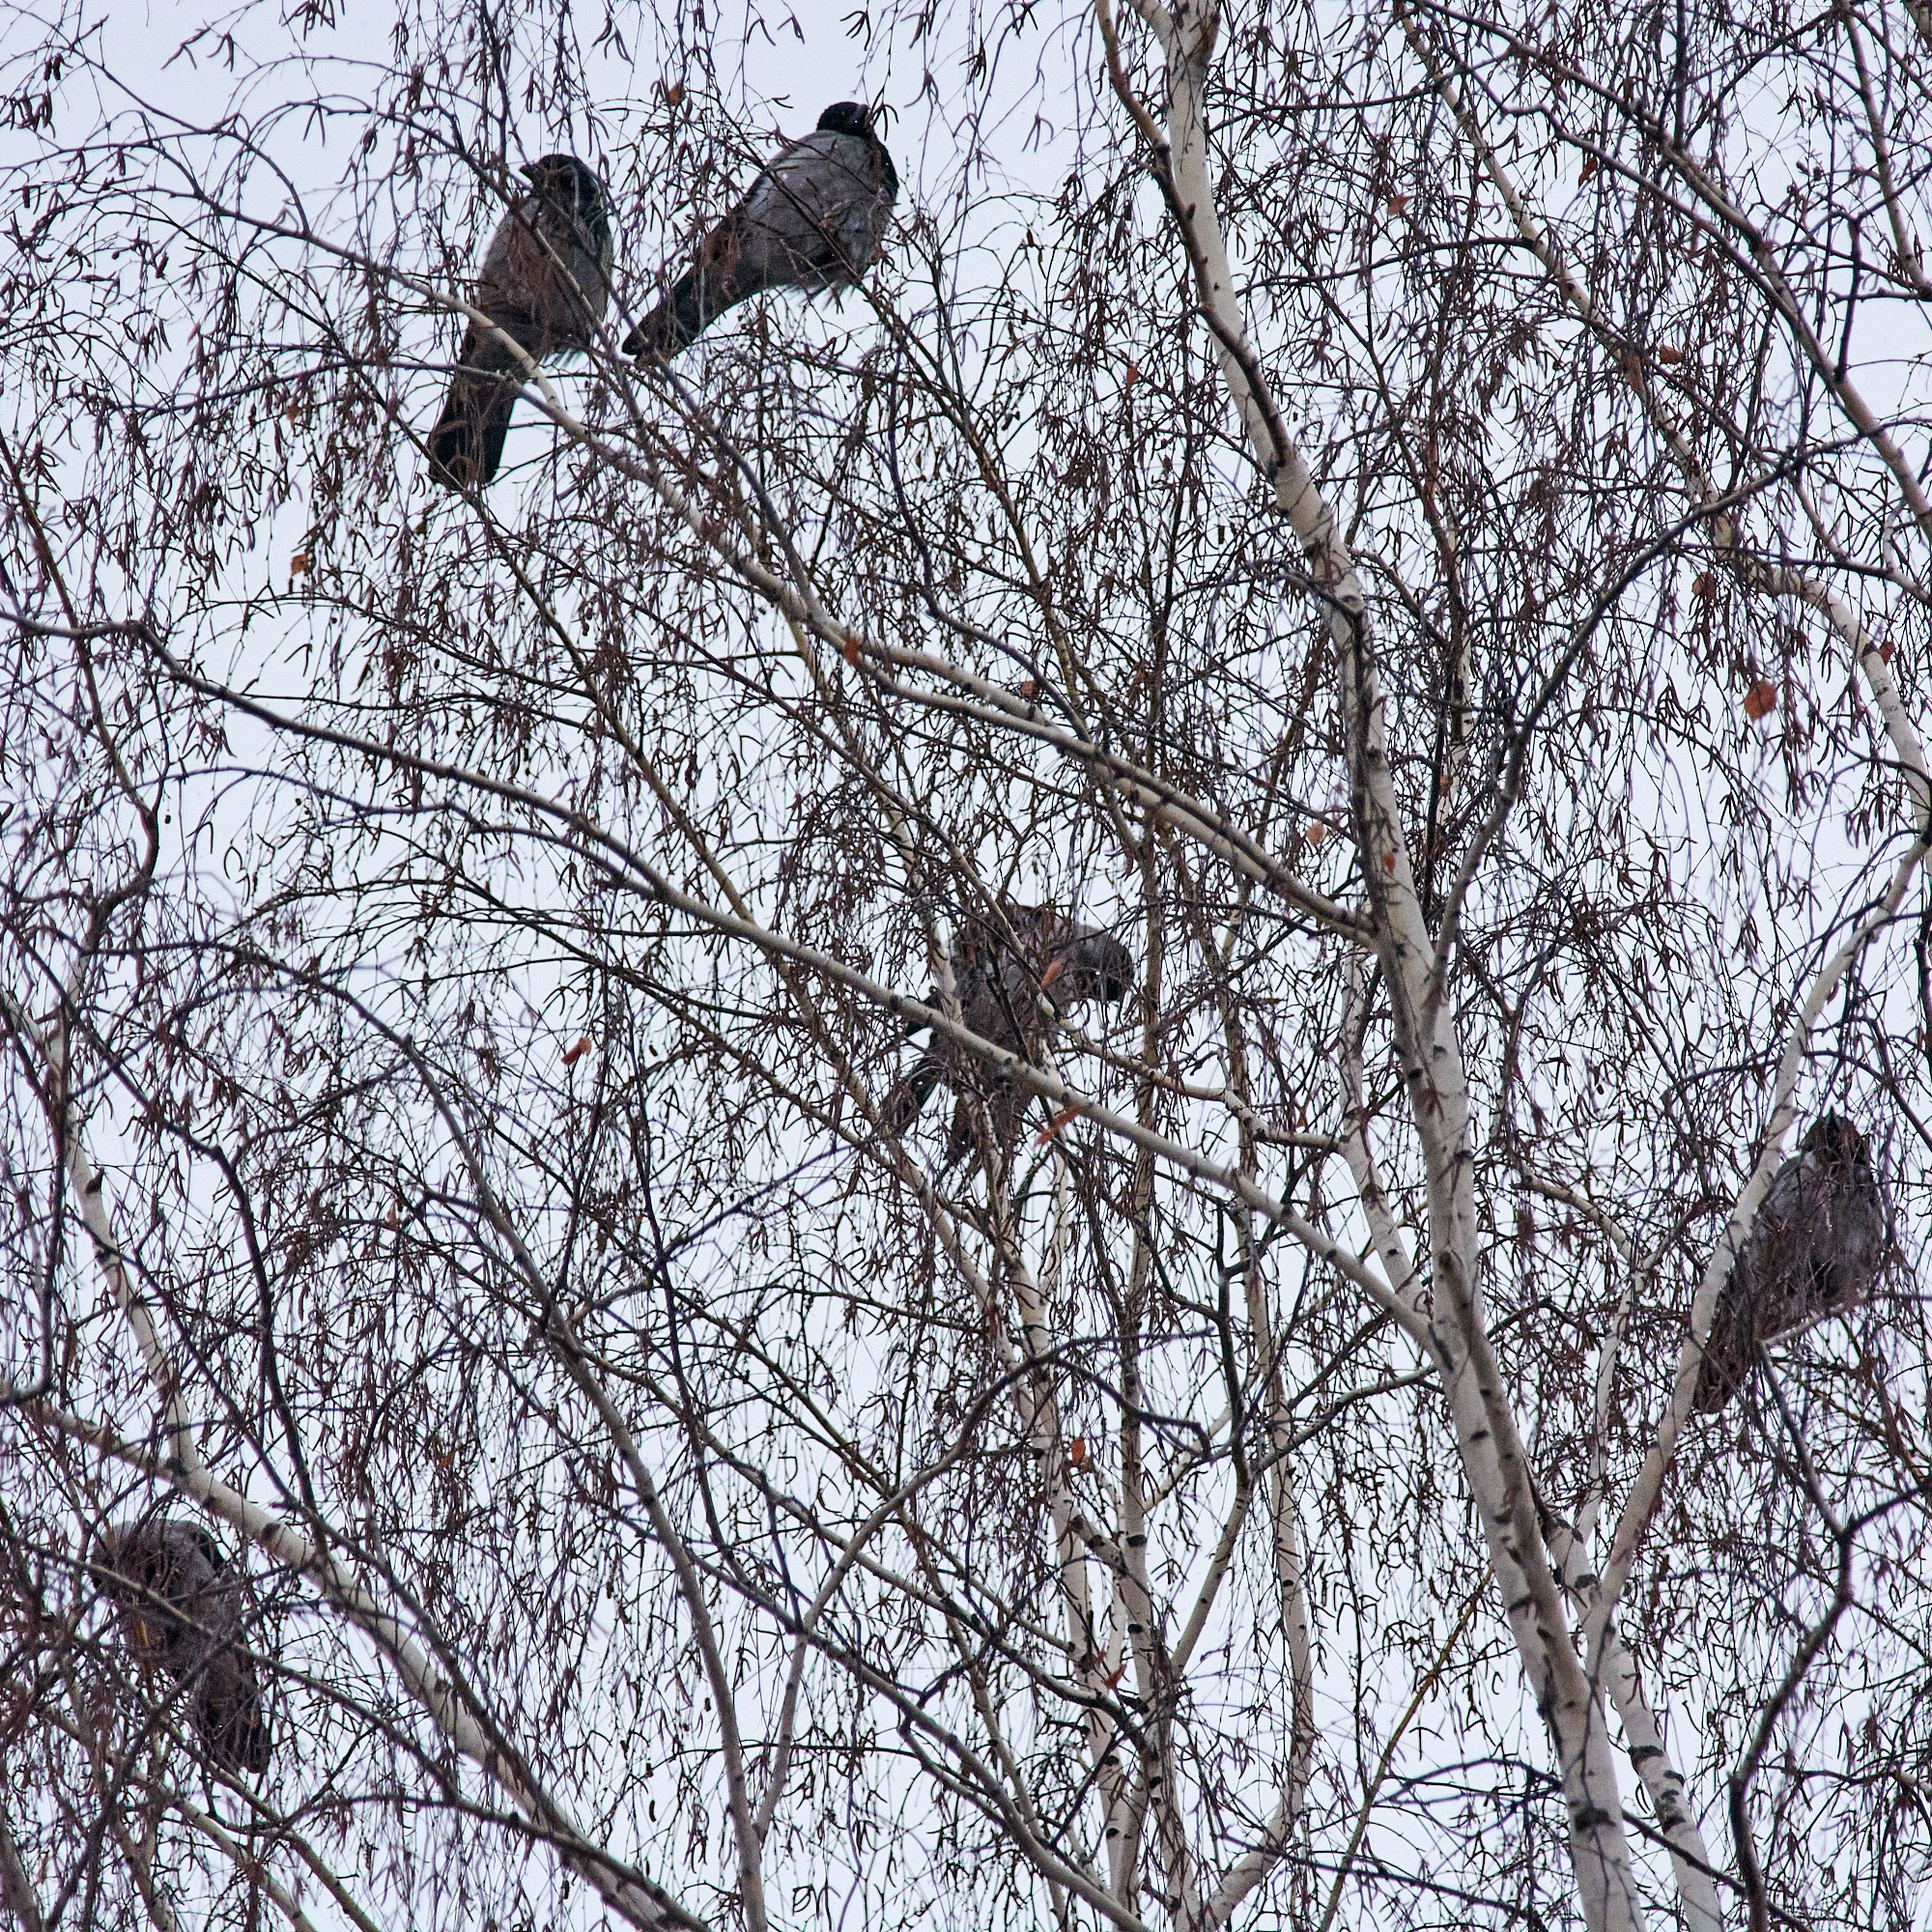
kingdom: Animalia
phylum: Chordata
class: Aves
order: Passeriformes
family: Corvidae
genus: Corvus
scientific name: Corvus cornix
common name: Hooded crow
